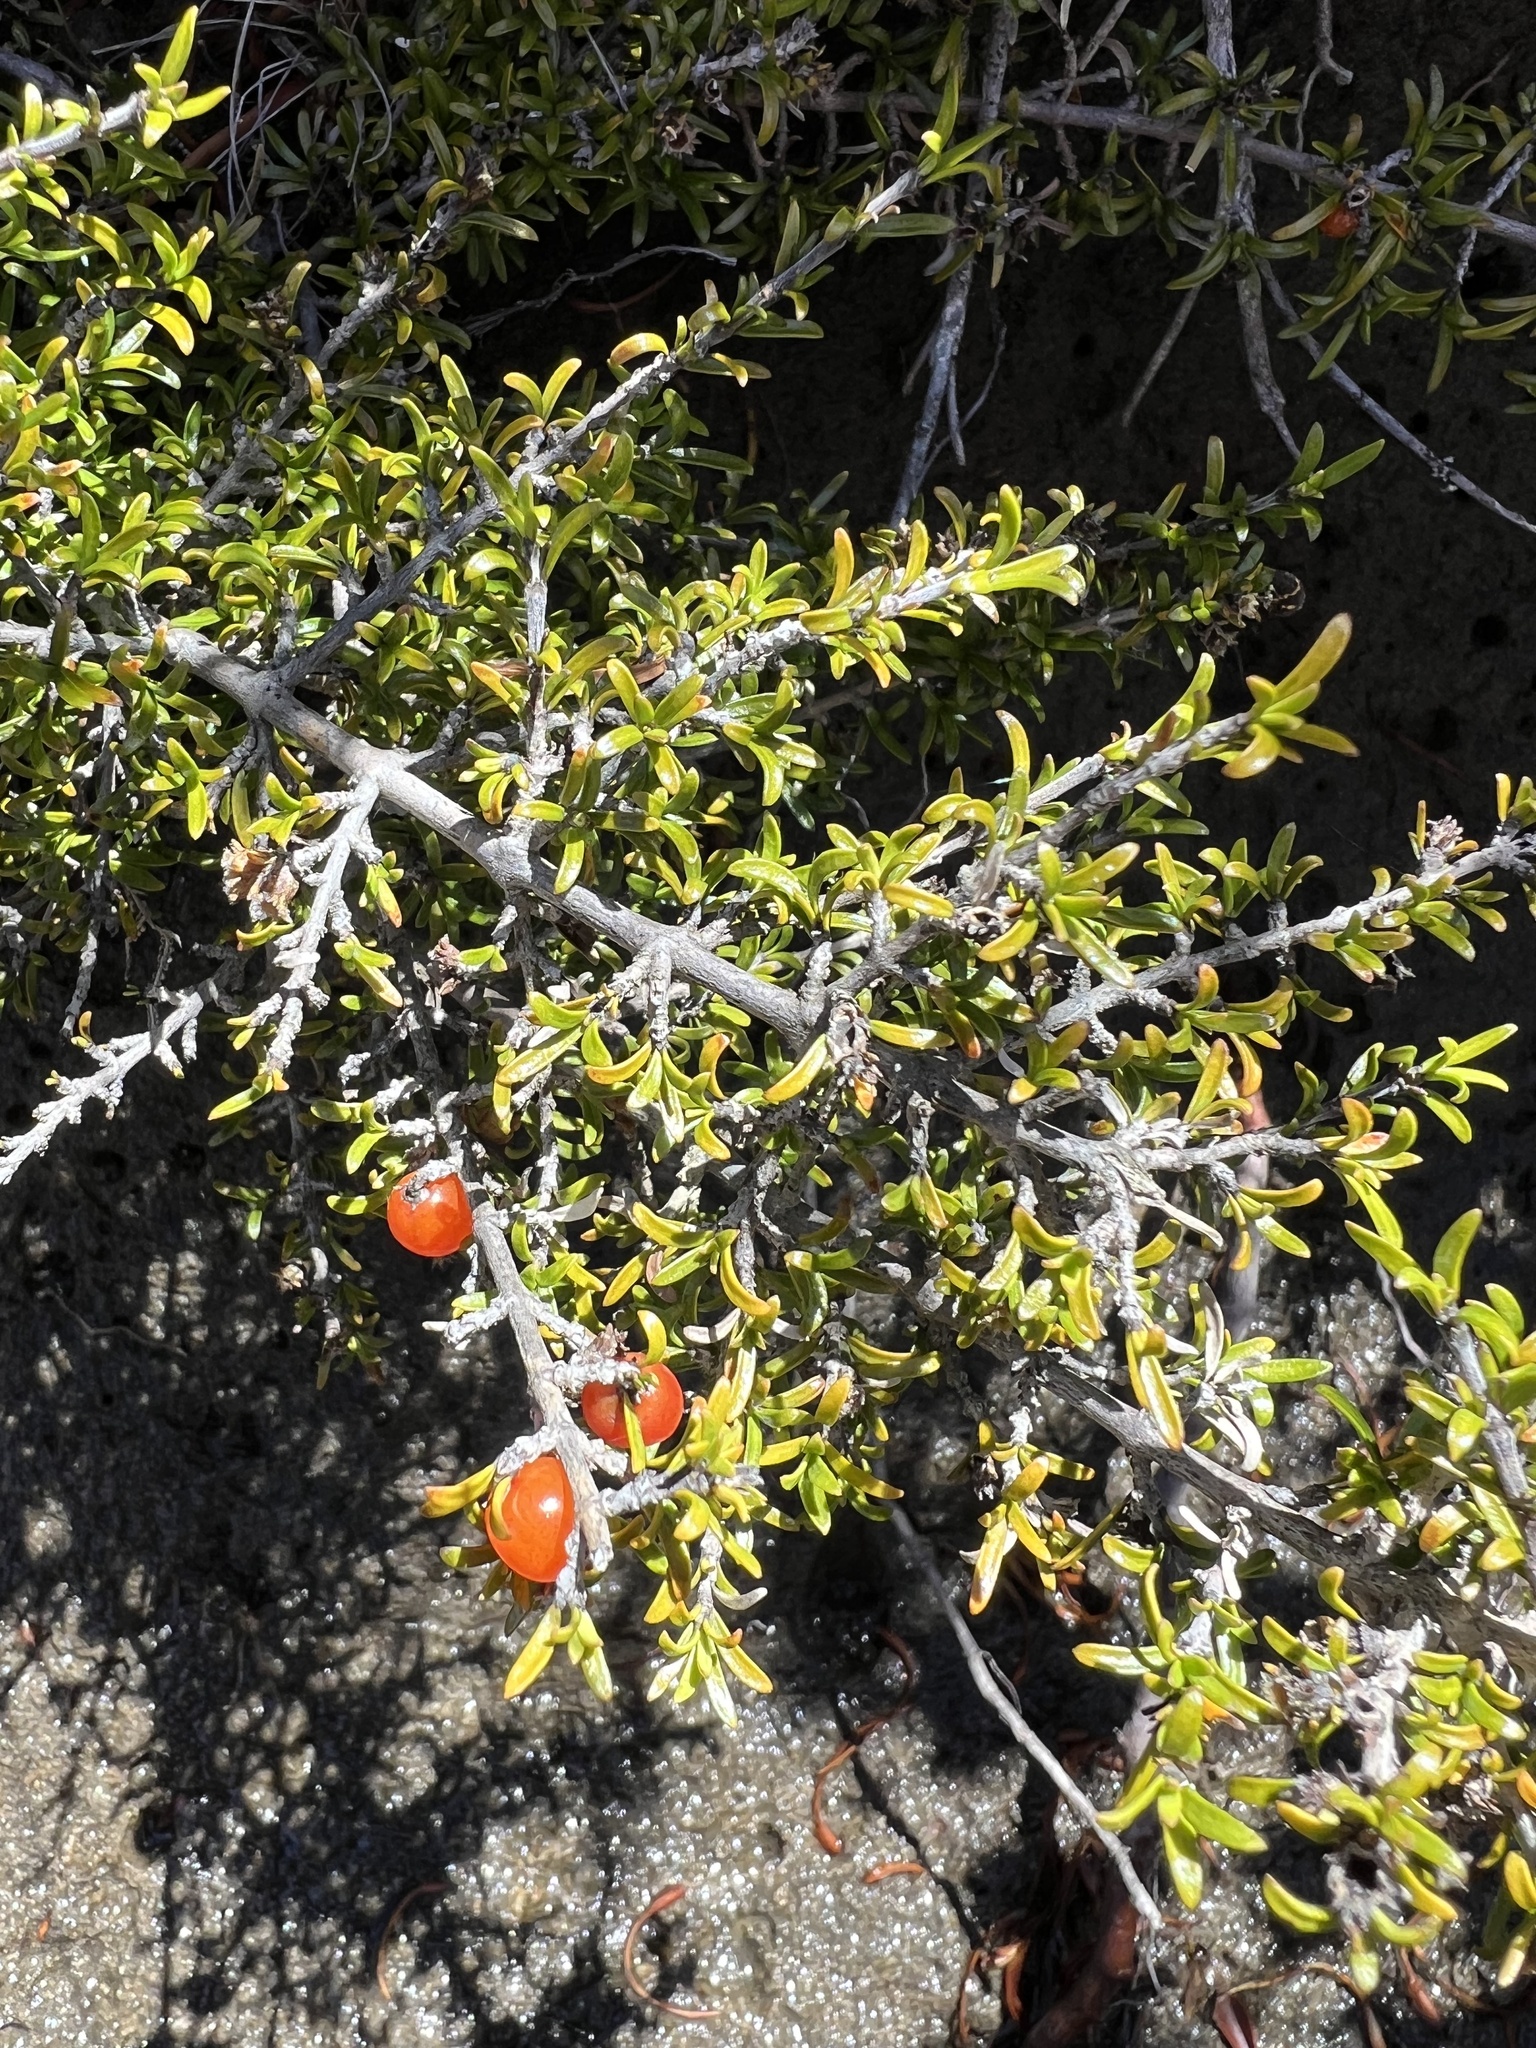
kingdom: Plantae
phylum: Tracheophyta
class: Magnoliopsida
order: Gentianales
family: Rubiaceae
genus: Coprosma
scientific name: Coprosma cheesemanii
